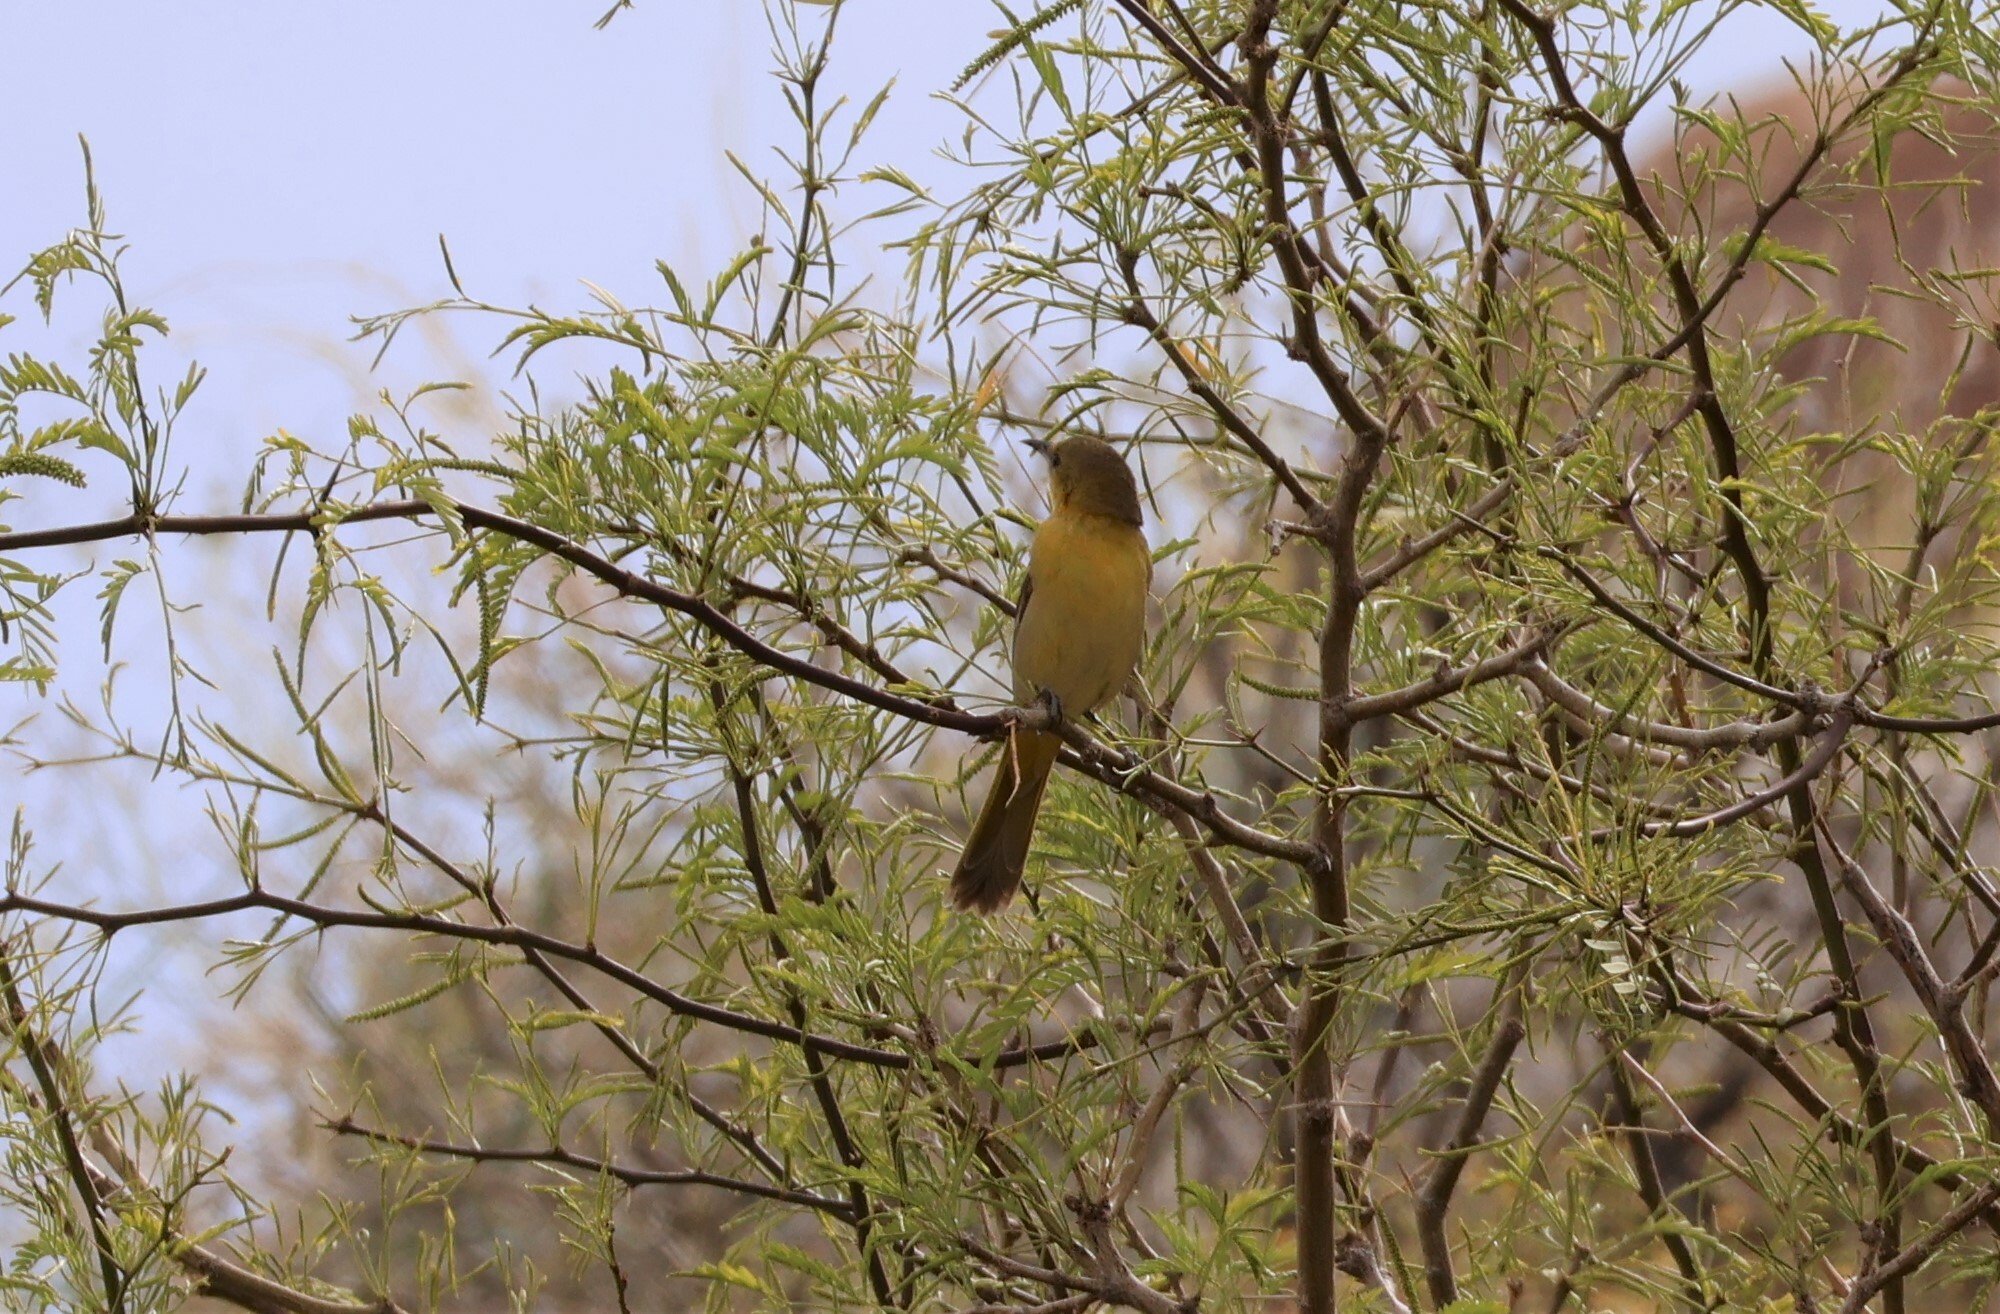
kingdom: Animalia
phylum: Chordata
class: Aves
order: Passeriformes
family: Icteridae
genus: Icterus
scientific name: Icterus cucullatus
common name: Hooded oriole
